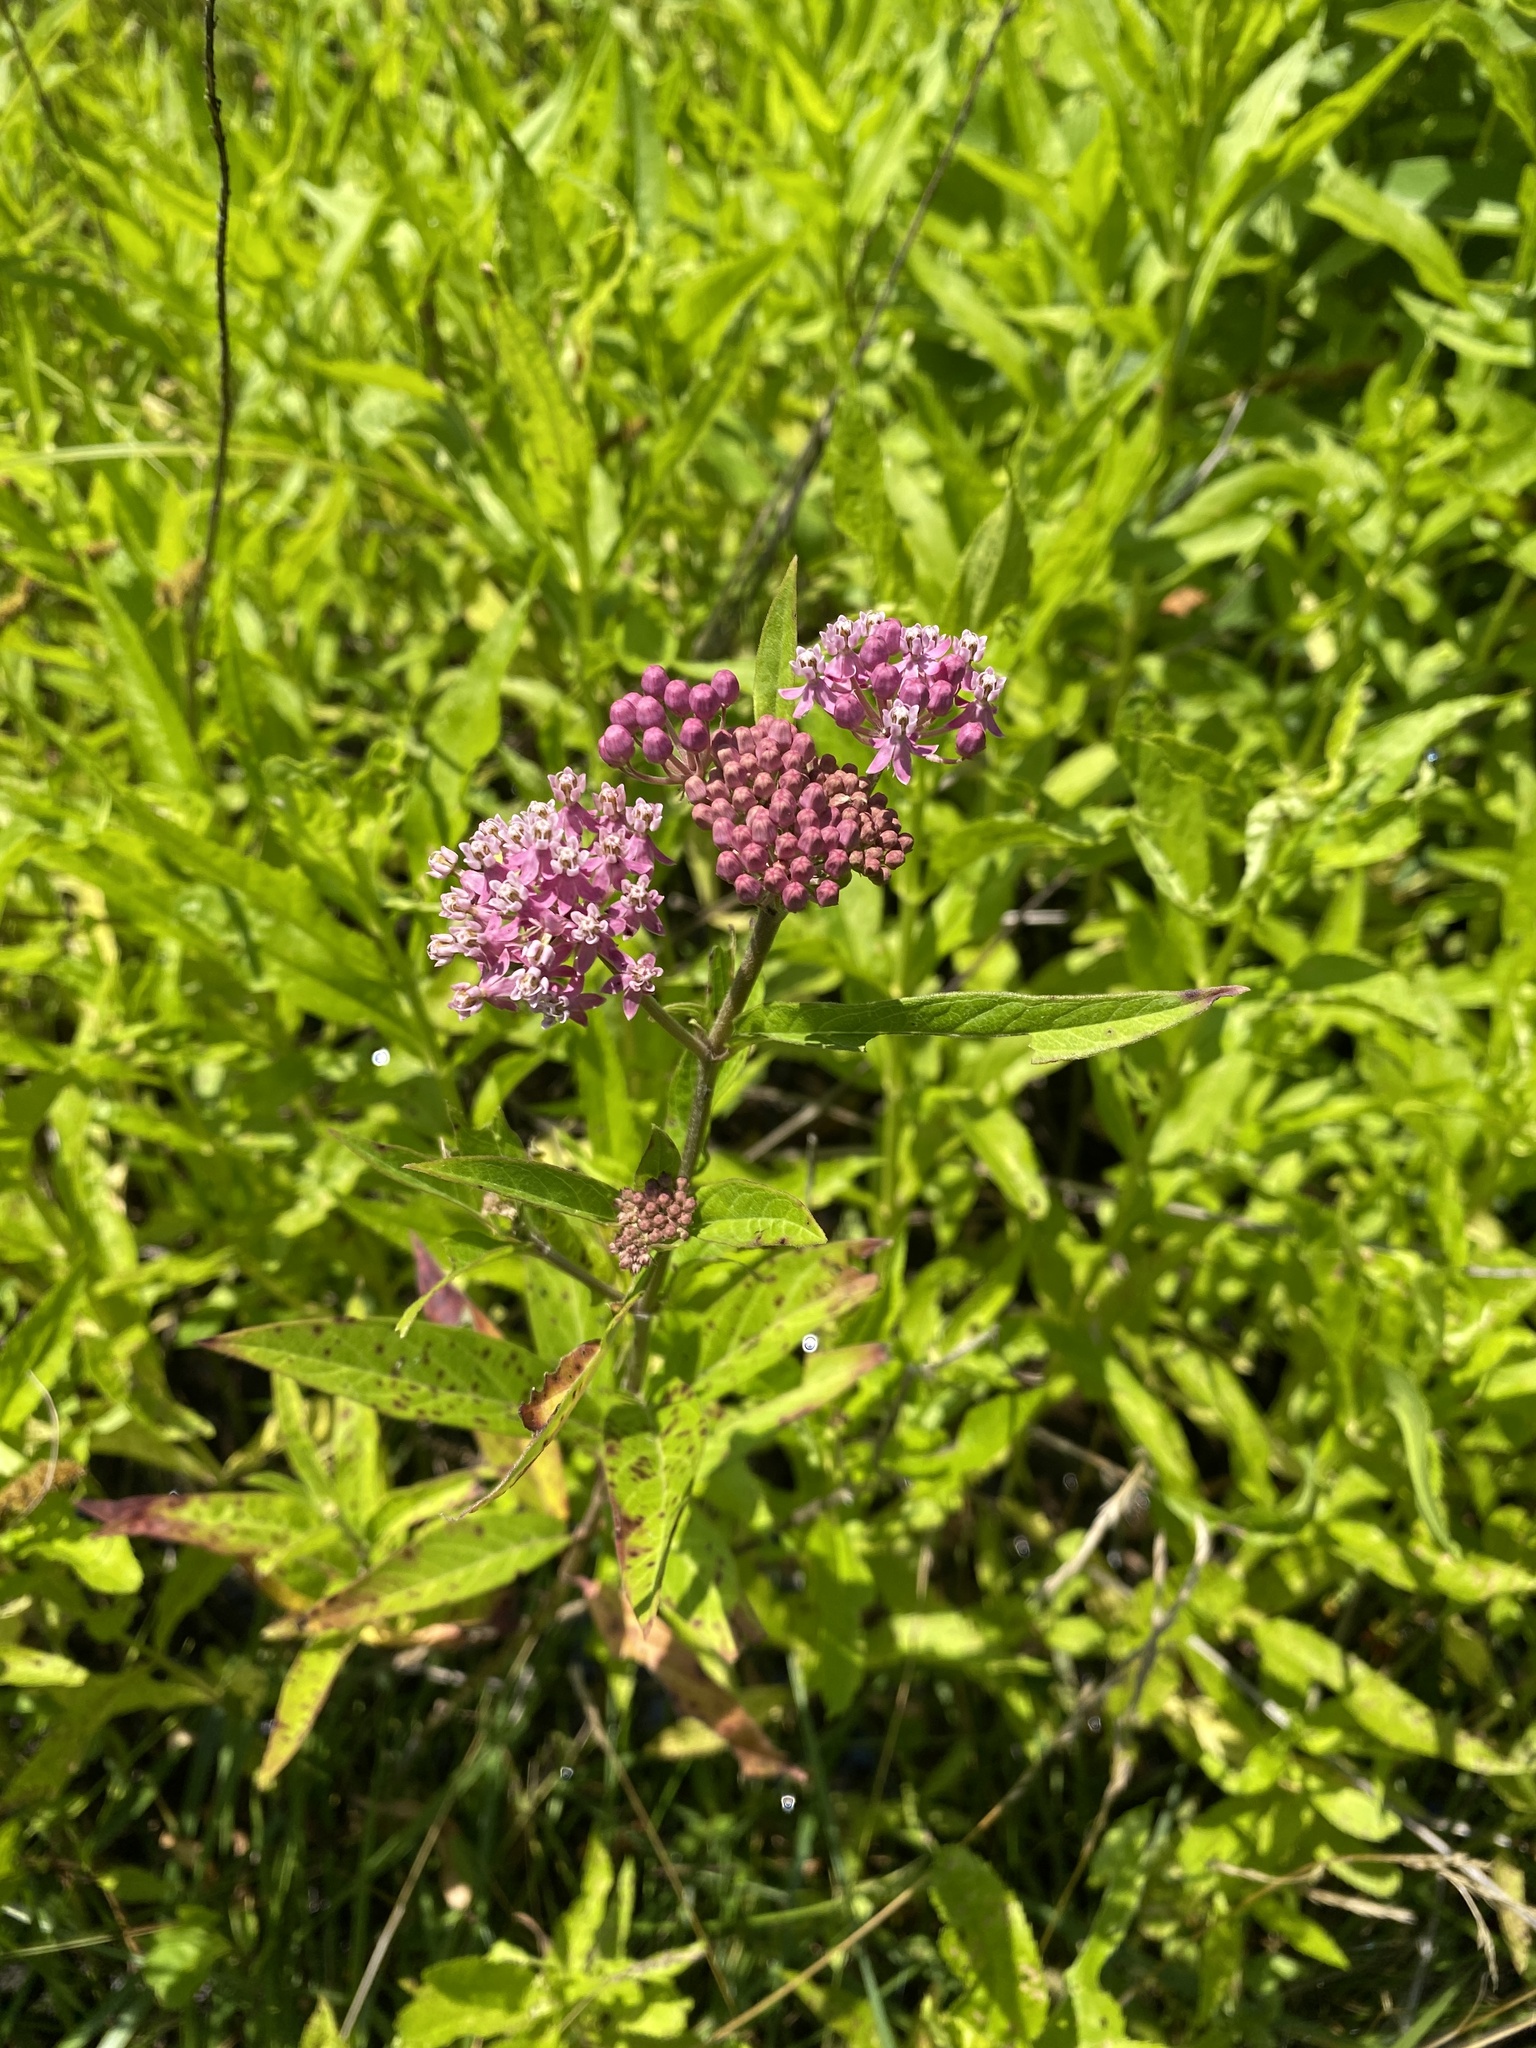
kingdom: Plantae
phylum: Tracheophyta
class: Magnoliopsida
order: Gentianales
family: Apocynaceae
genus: Asclepias
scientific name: Asclepias incarnata
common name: Swamp milkweed
